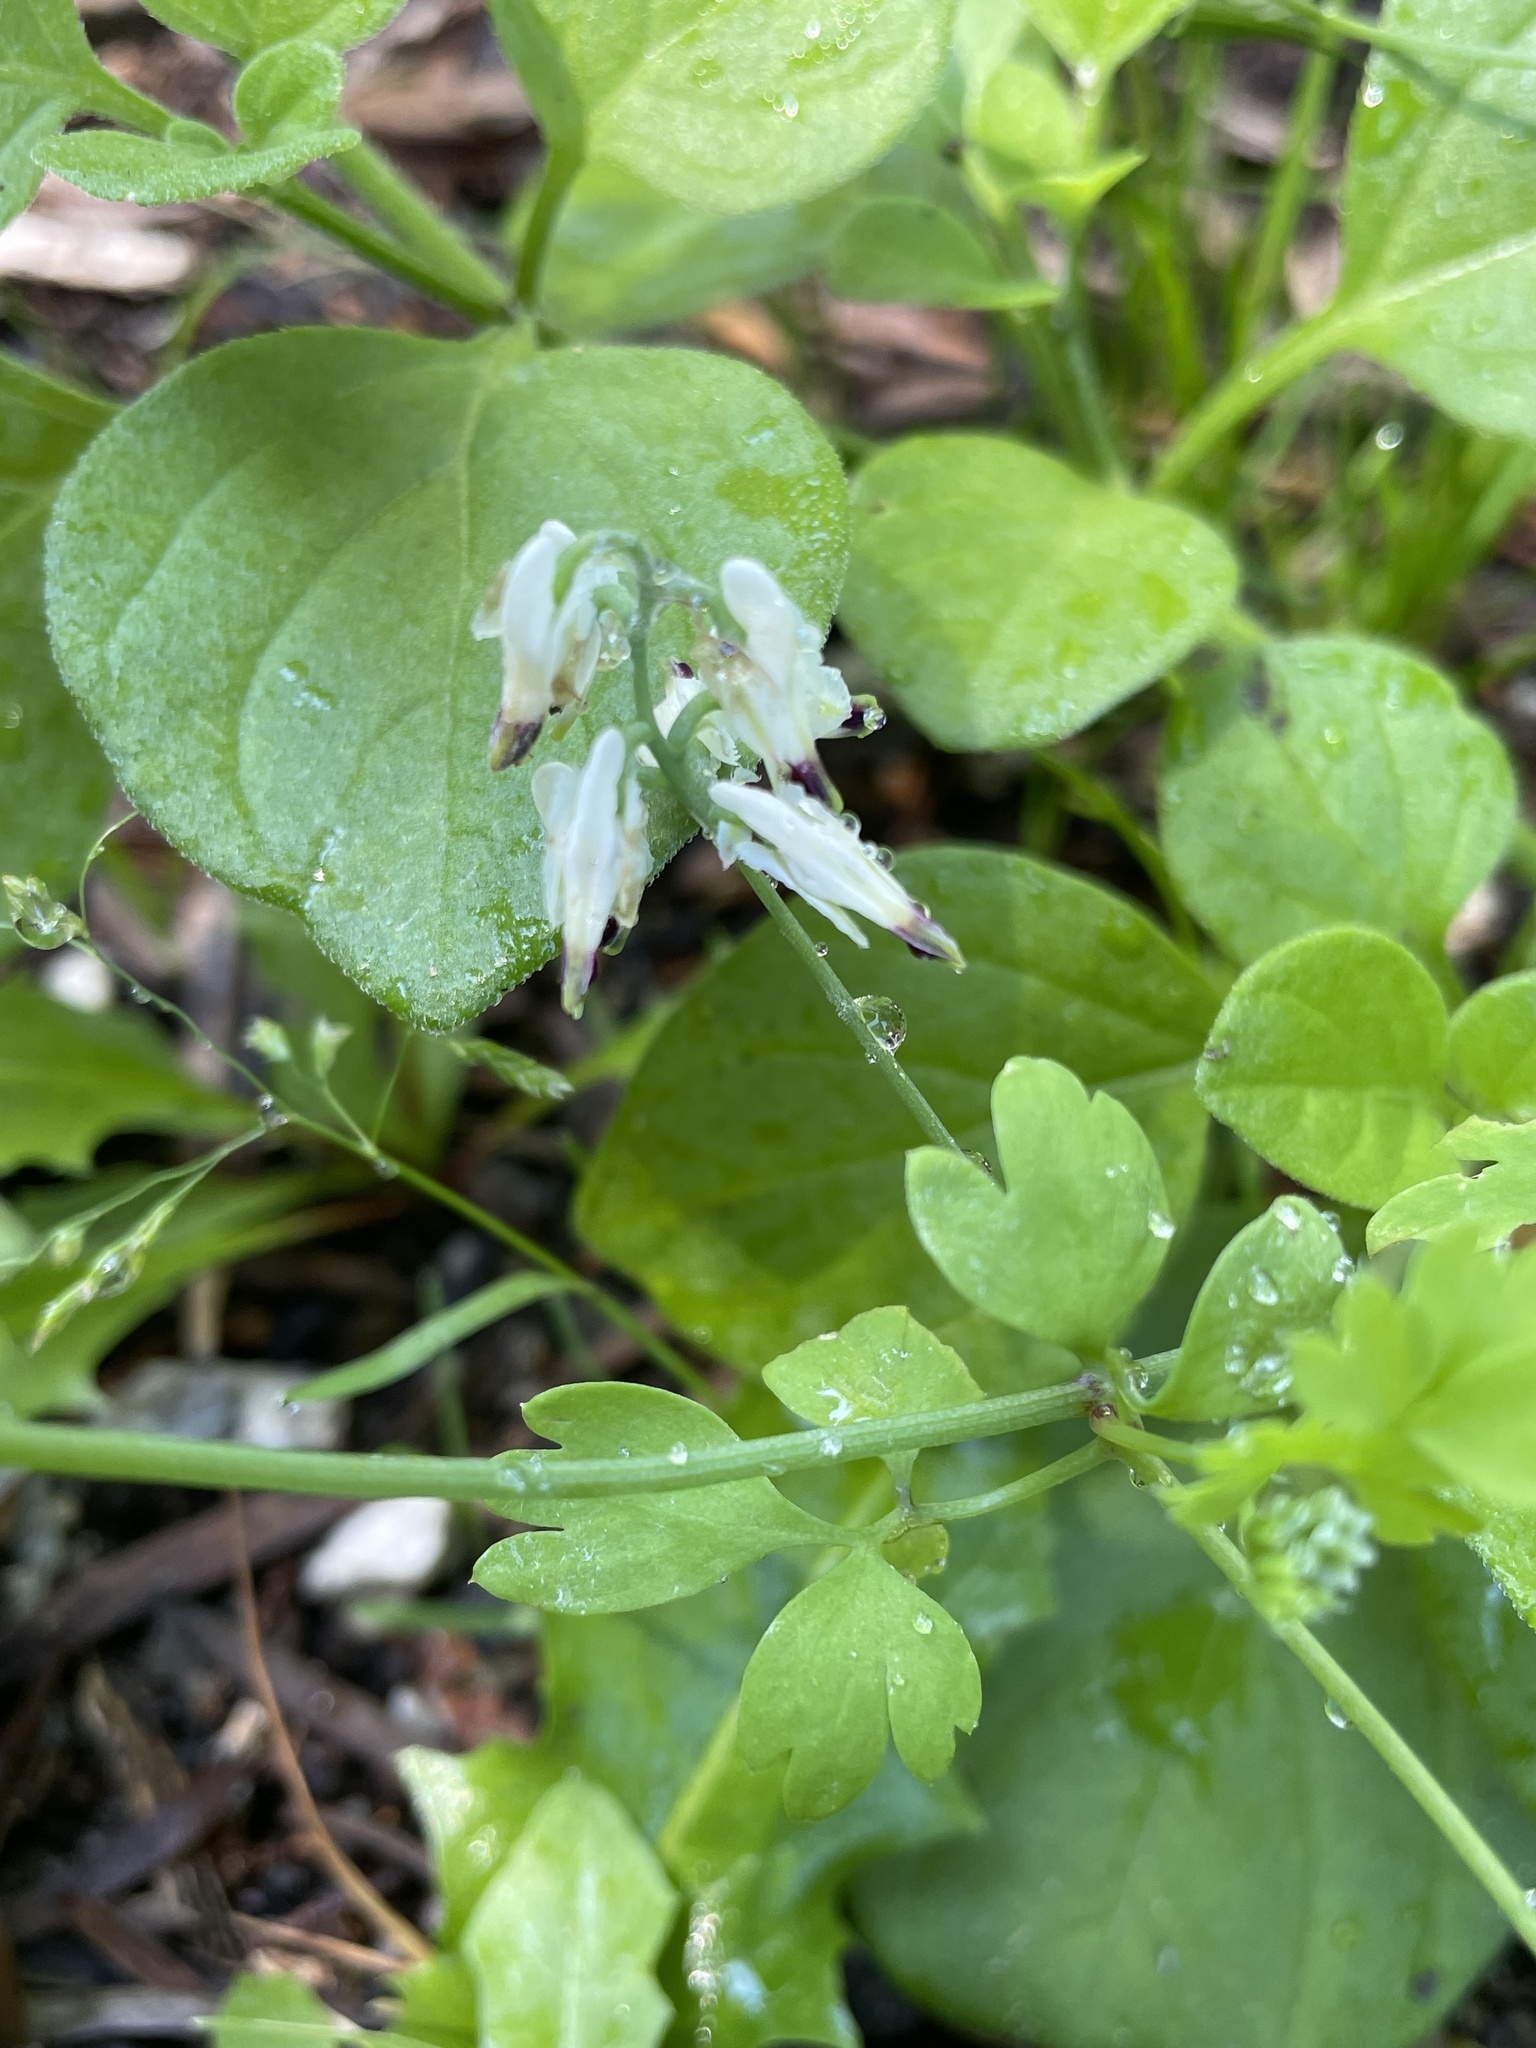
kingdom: Plantae
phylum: Tracheophyta
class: Magnoliopsida
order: Ranunculales
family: Papaveraceae
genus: Fumaria
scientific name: Fumaria capreolata
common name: White ramping-fumitory
